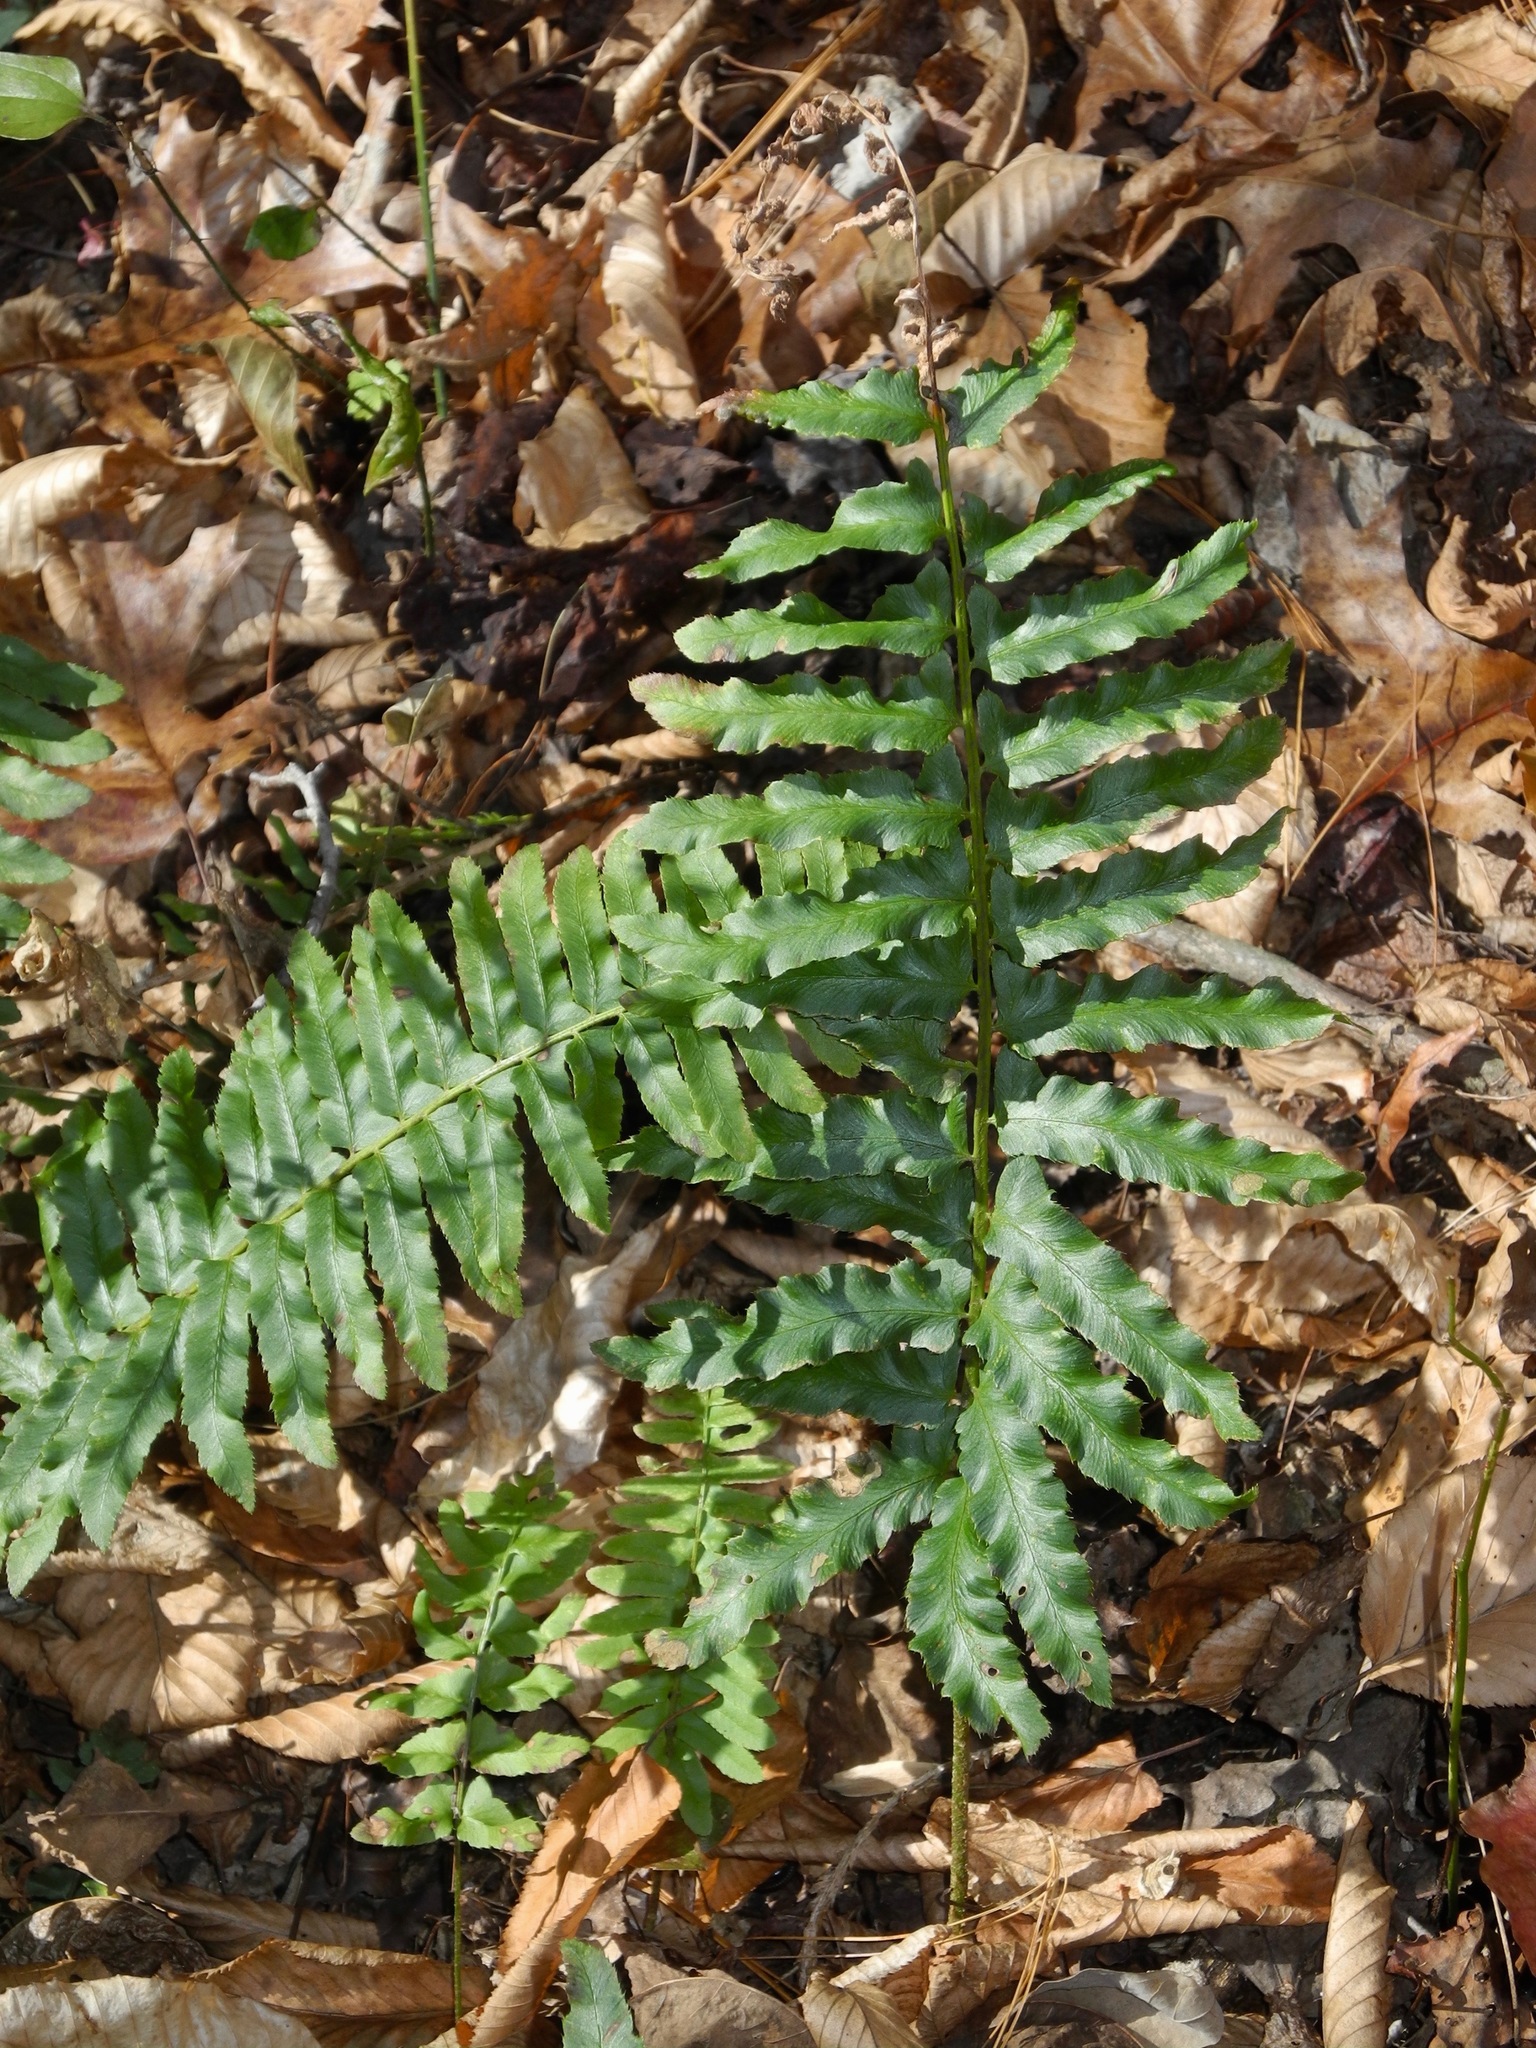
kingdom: Plantae
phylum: Tracheophyta
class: Polypodiopsida
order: Polypodiales
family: Dryopteridaceae
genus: Polystichum
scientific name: Polystichum acrostichoides
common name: Christmas fern
